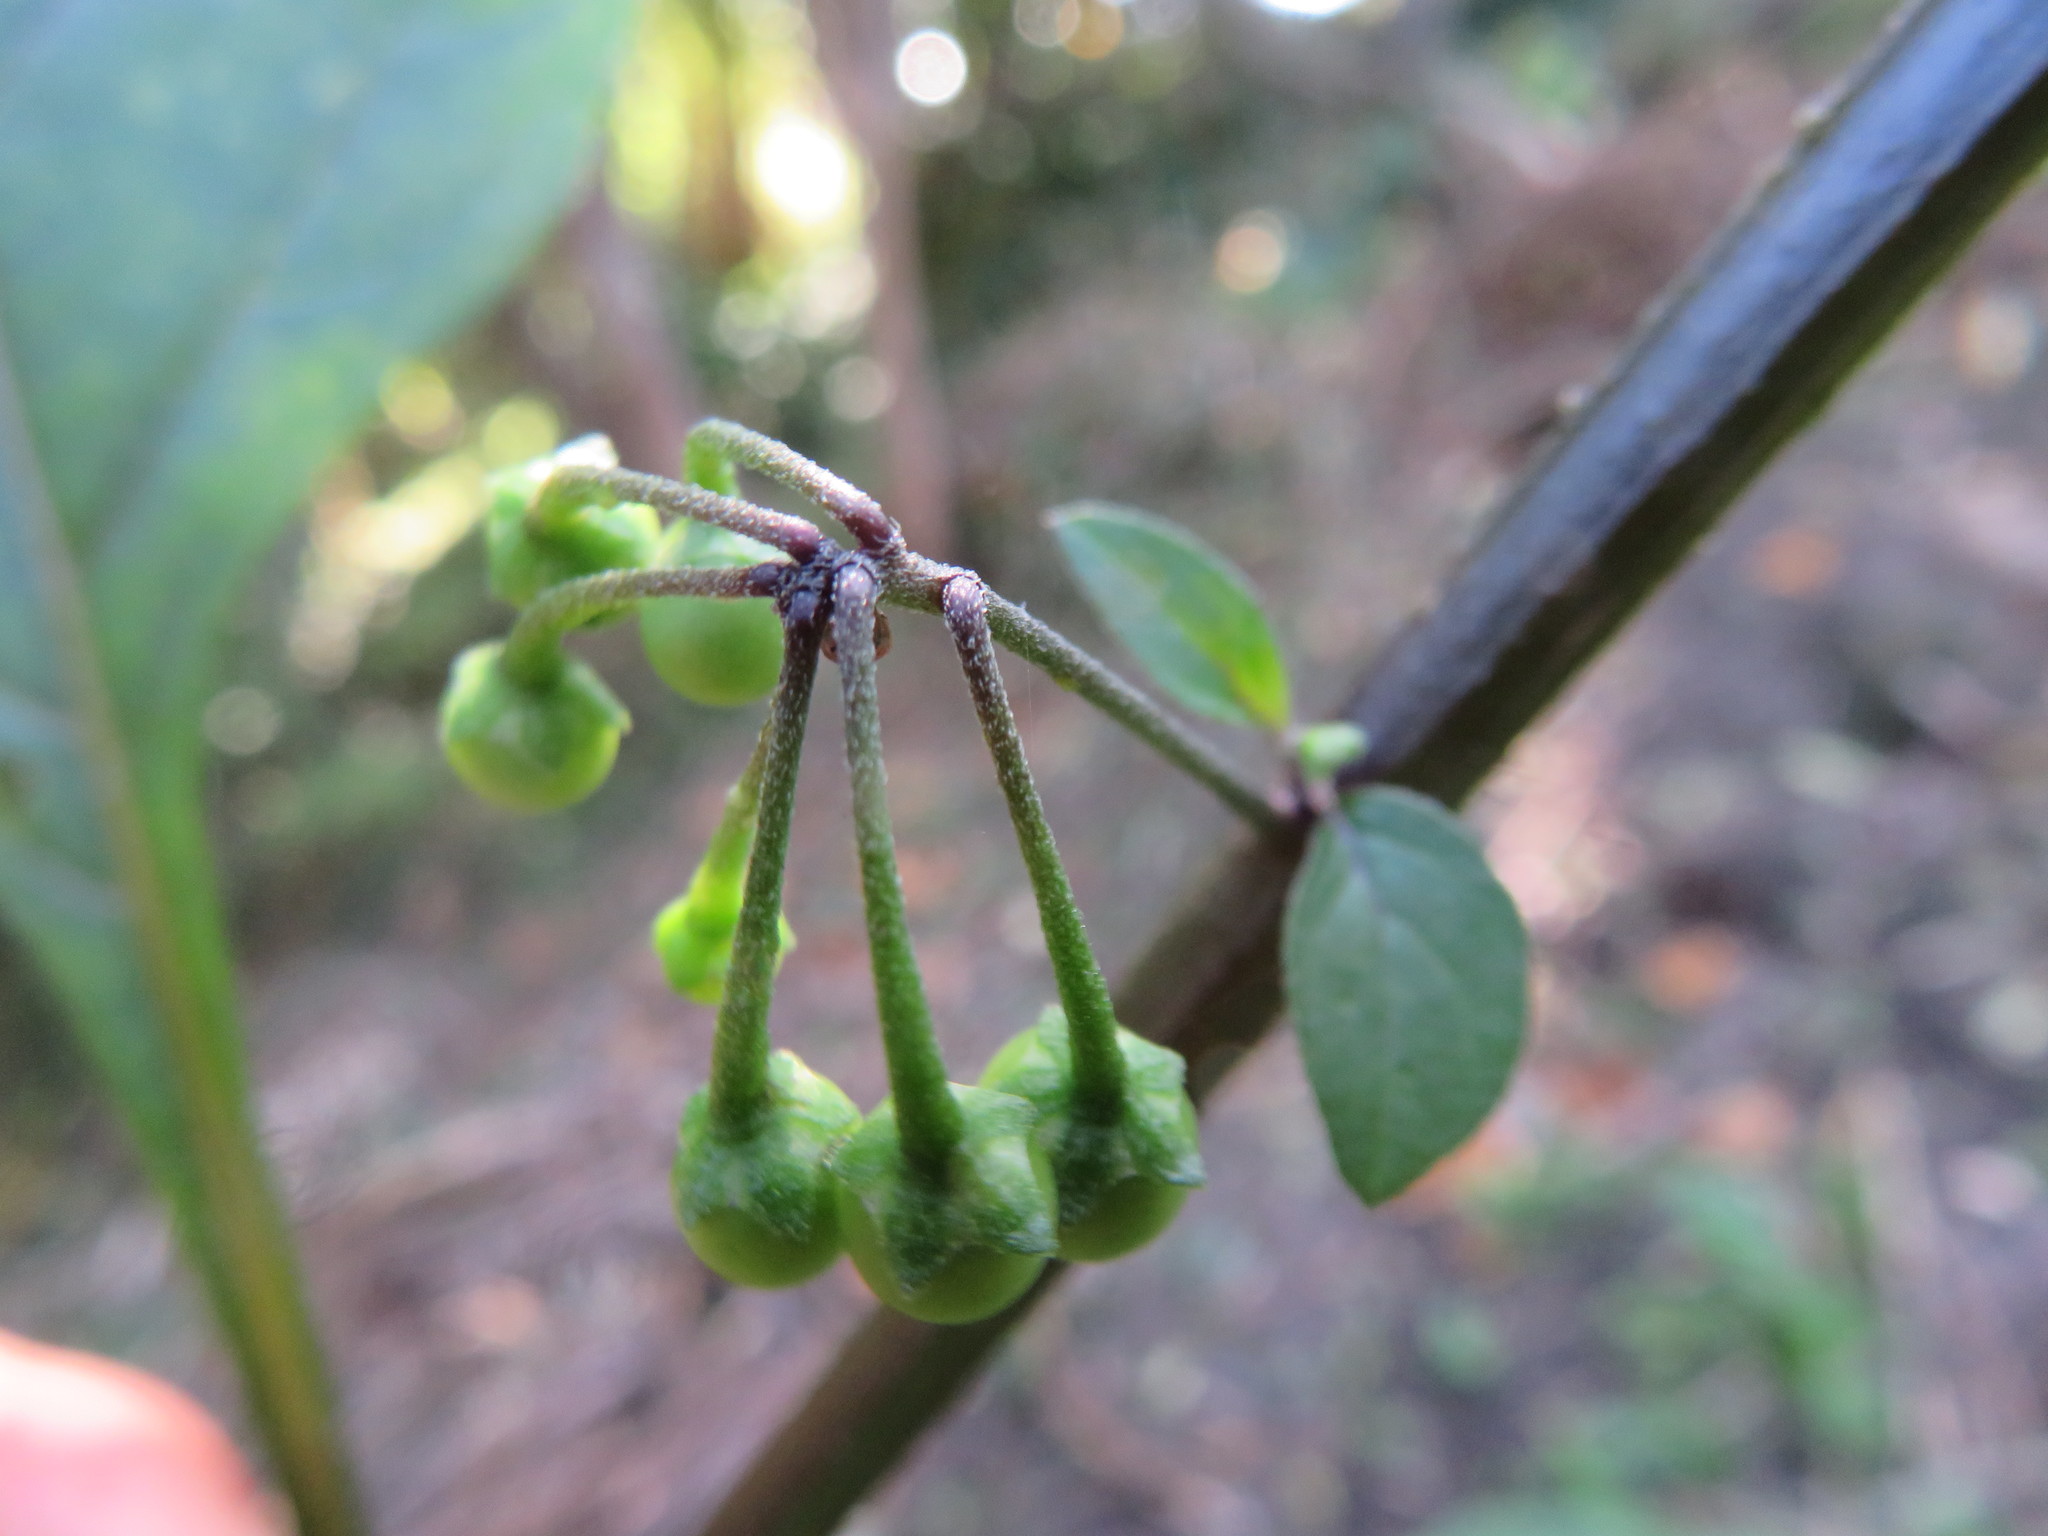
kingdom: Plantae
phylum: Tracheophyta
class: Magnoliopsida
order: Solanales
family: Solanaceae
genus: Solanum
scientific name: Solanum nigrum
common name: Black nightshade
